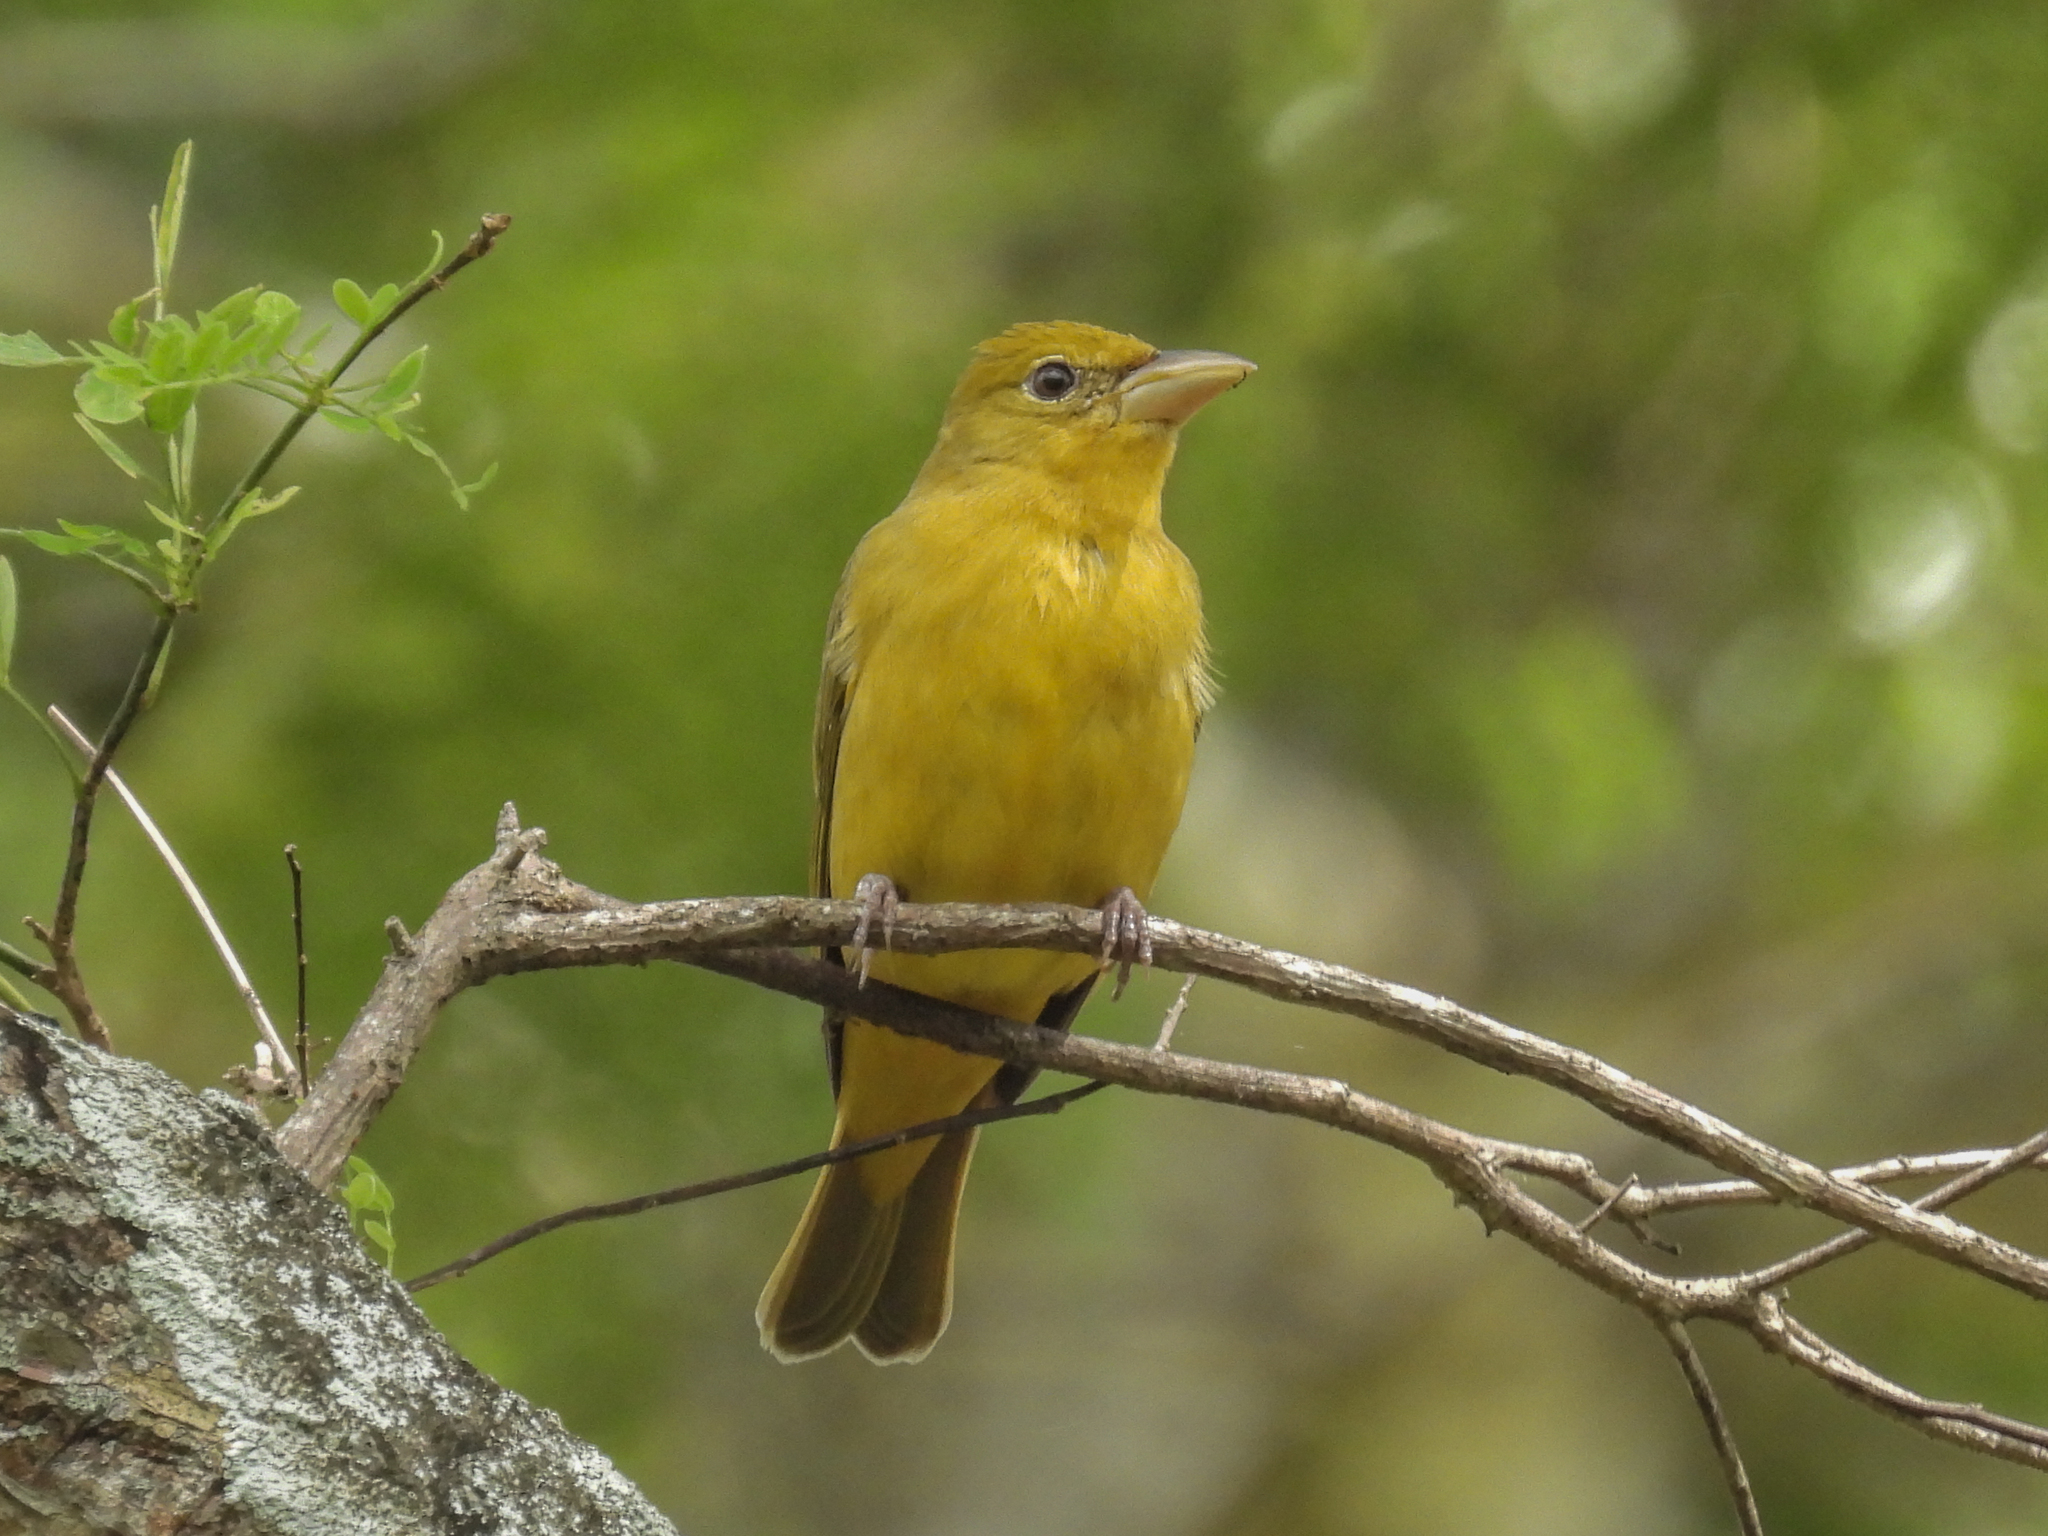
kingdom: Animalia
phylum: Chordata
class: Aves
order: Passeriformes
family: Cardinalidae
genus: Piranga
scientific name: Piranga rubra
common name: Summer tanager
